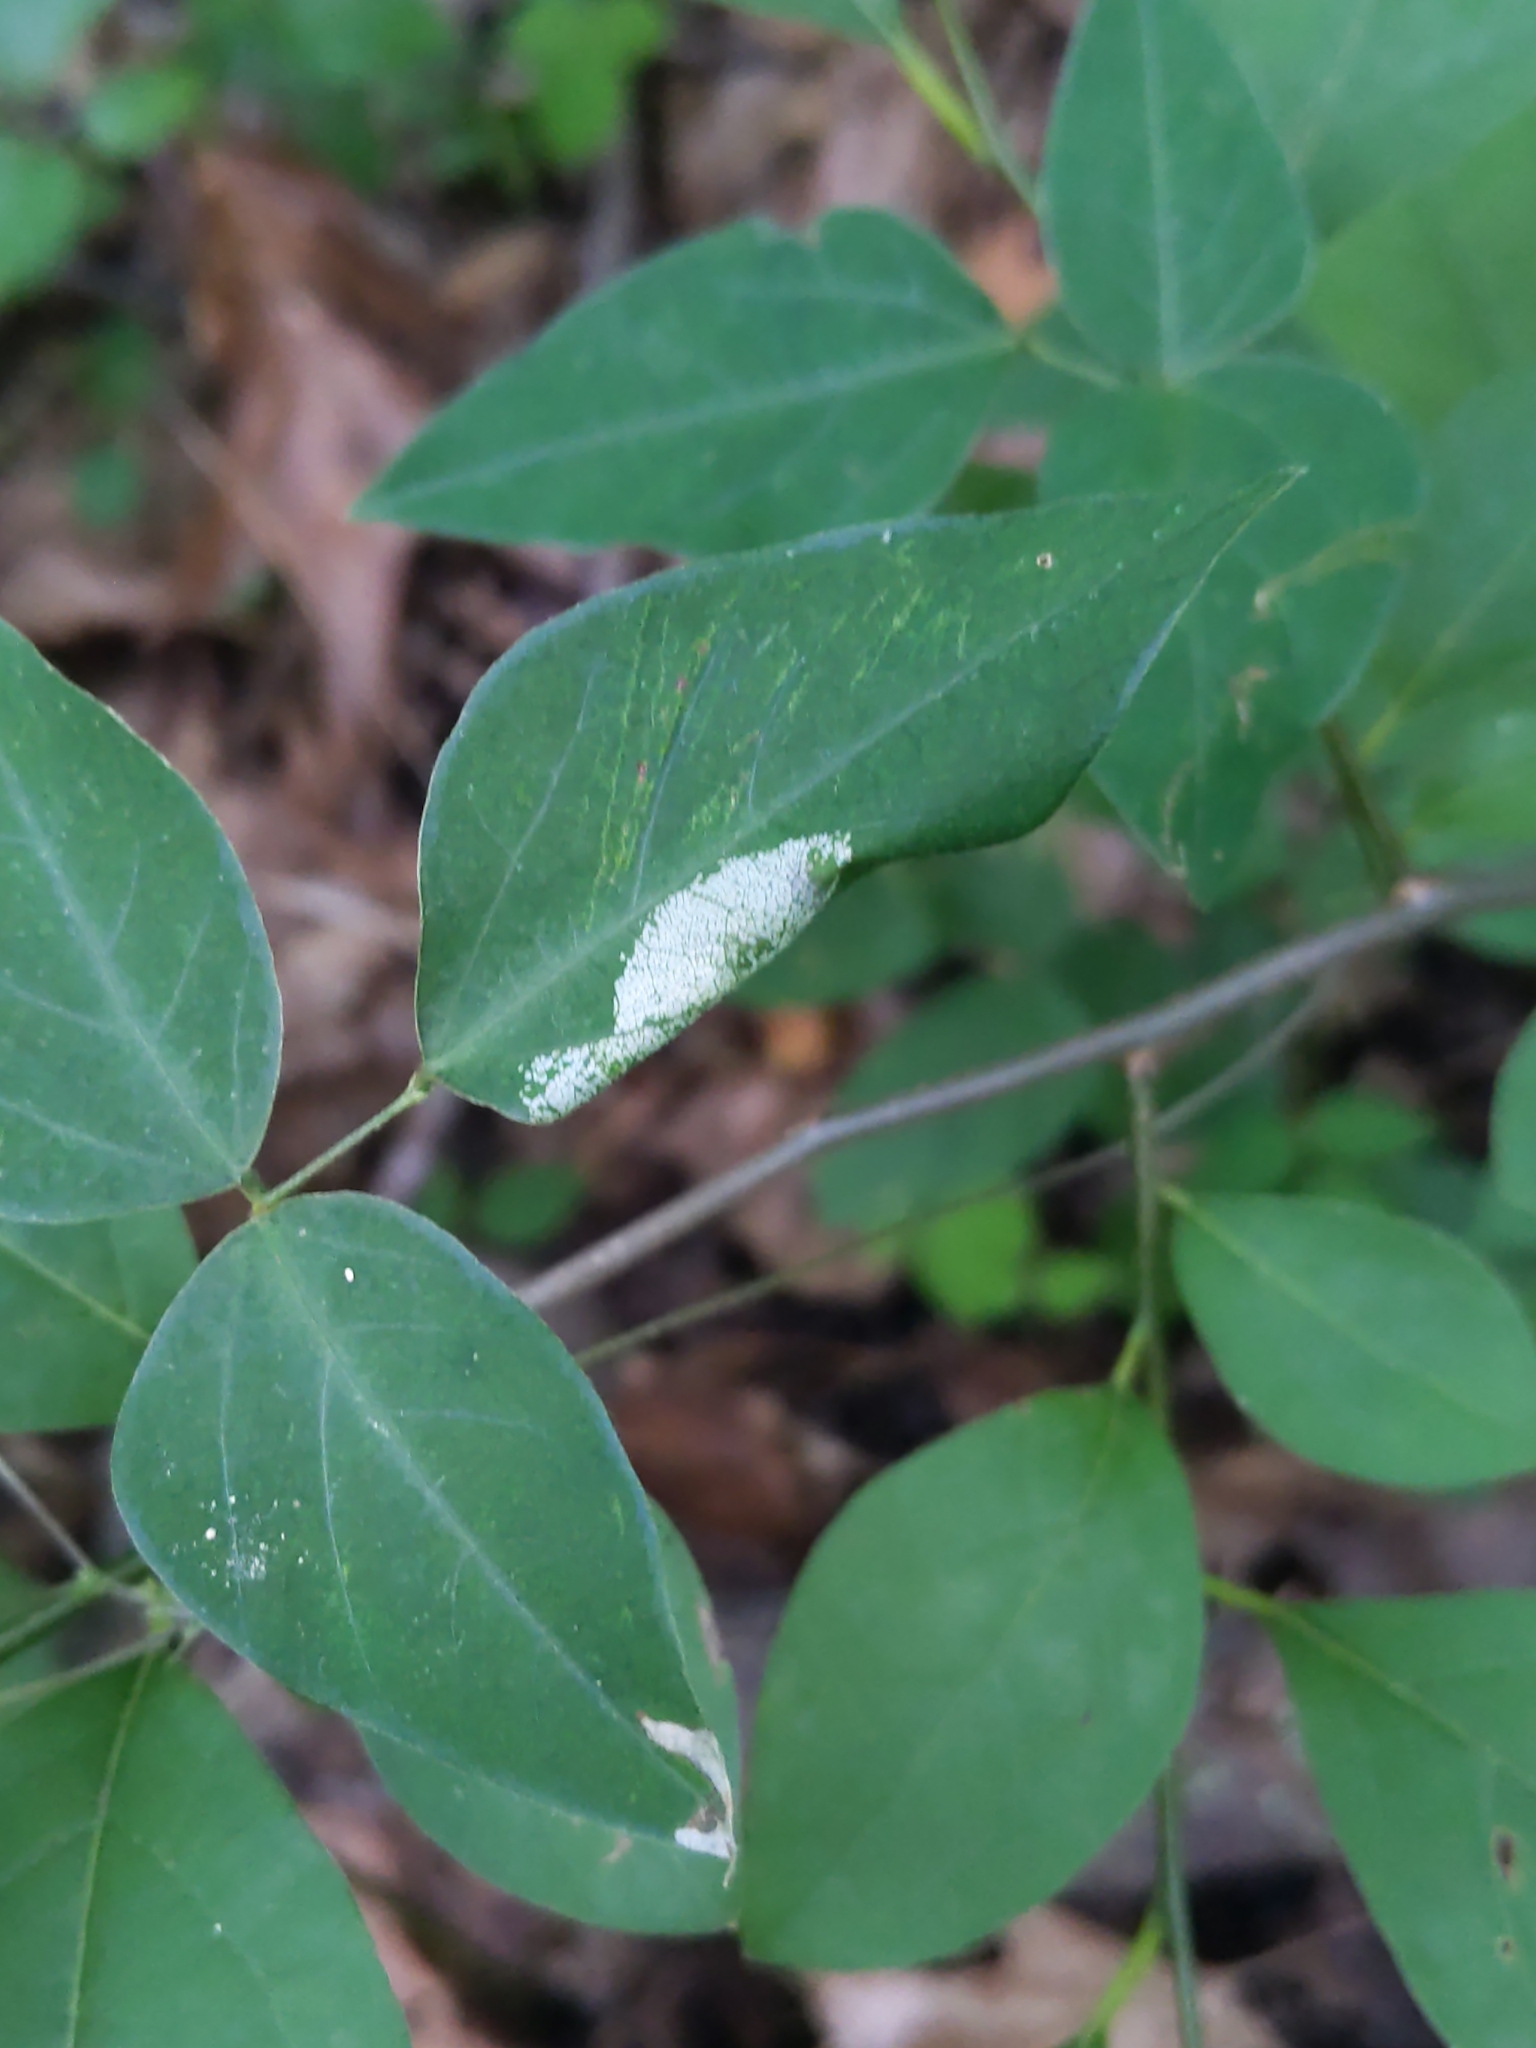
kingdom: Plantae
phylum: Tracheophyta
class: Magnoliopsida
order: Laurales
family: Lauraceae
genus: Lindera
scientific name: Lindera benzoin
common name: Spicebush
